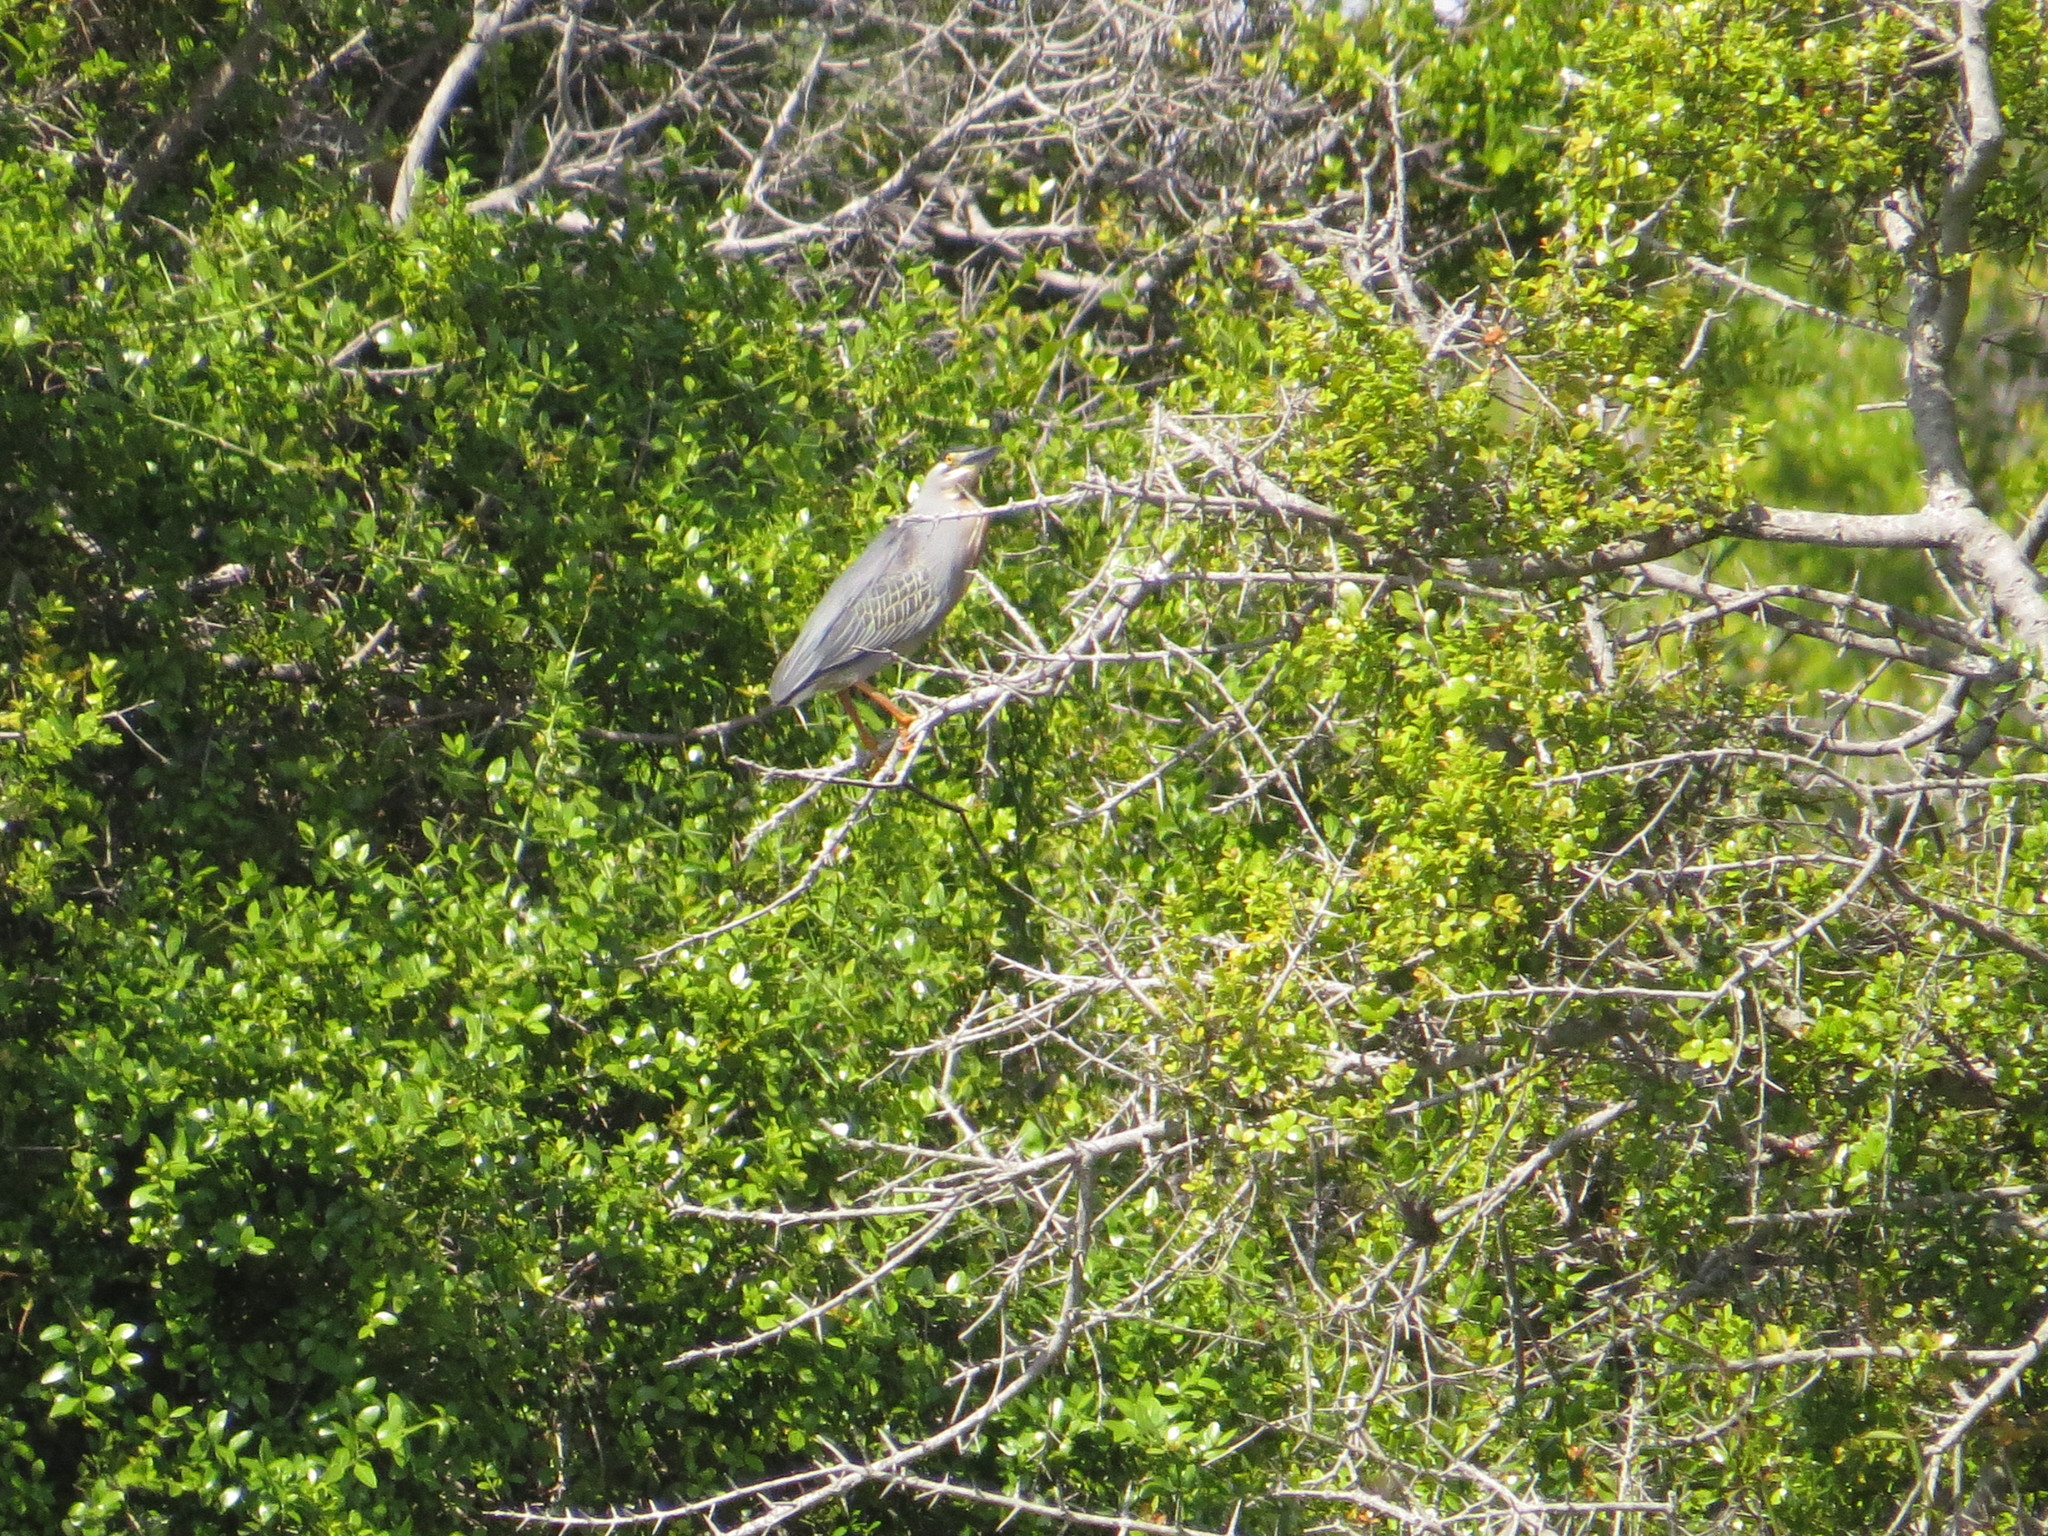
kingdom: Animalia
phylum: Chordata
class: Aves
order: Pelecaniformes
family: Ardeidae
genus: Butorides
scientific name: Butorides striata
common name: Striated heron
